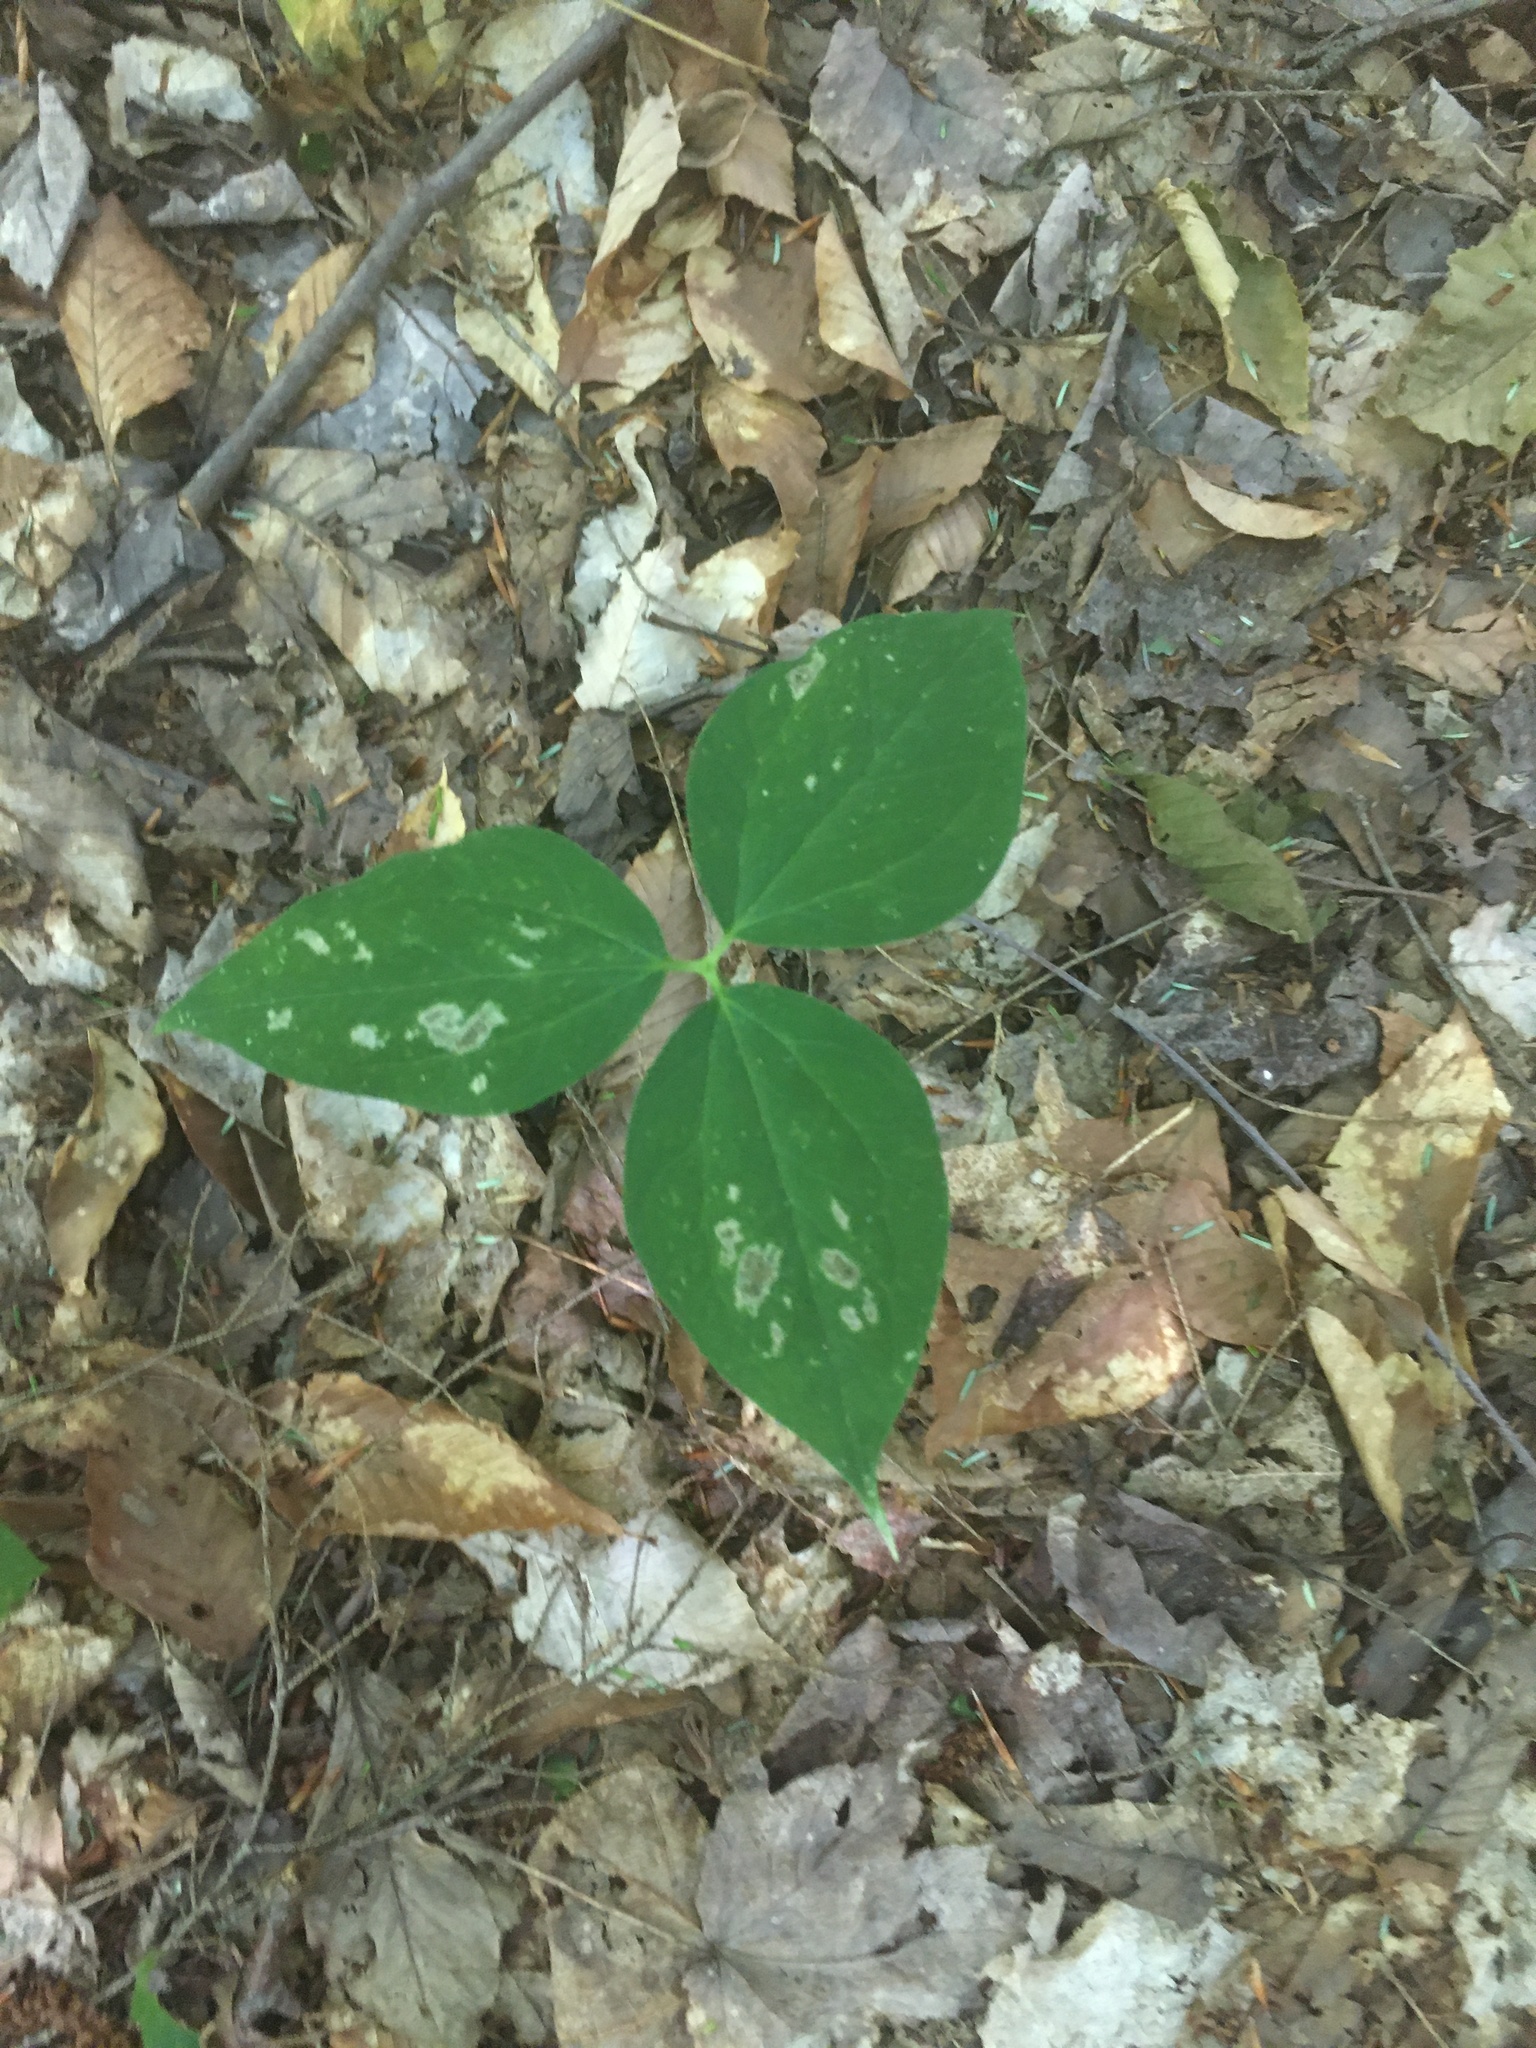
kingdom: Plantae
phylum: Tracheophyta
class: Liliopsida
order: Liliales
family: Melanthiaceae
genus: Trillium
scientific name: Trillium undulatum
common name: Paint trillium
